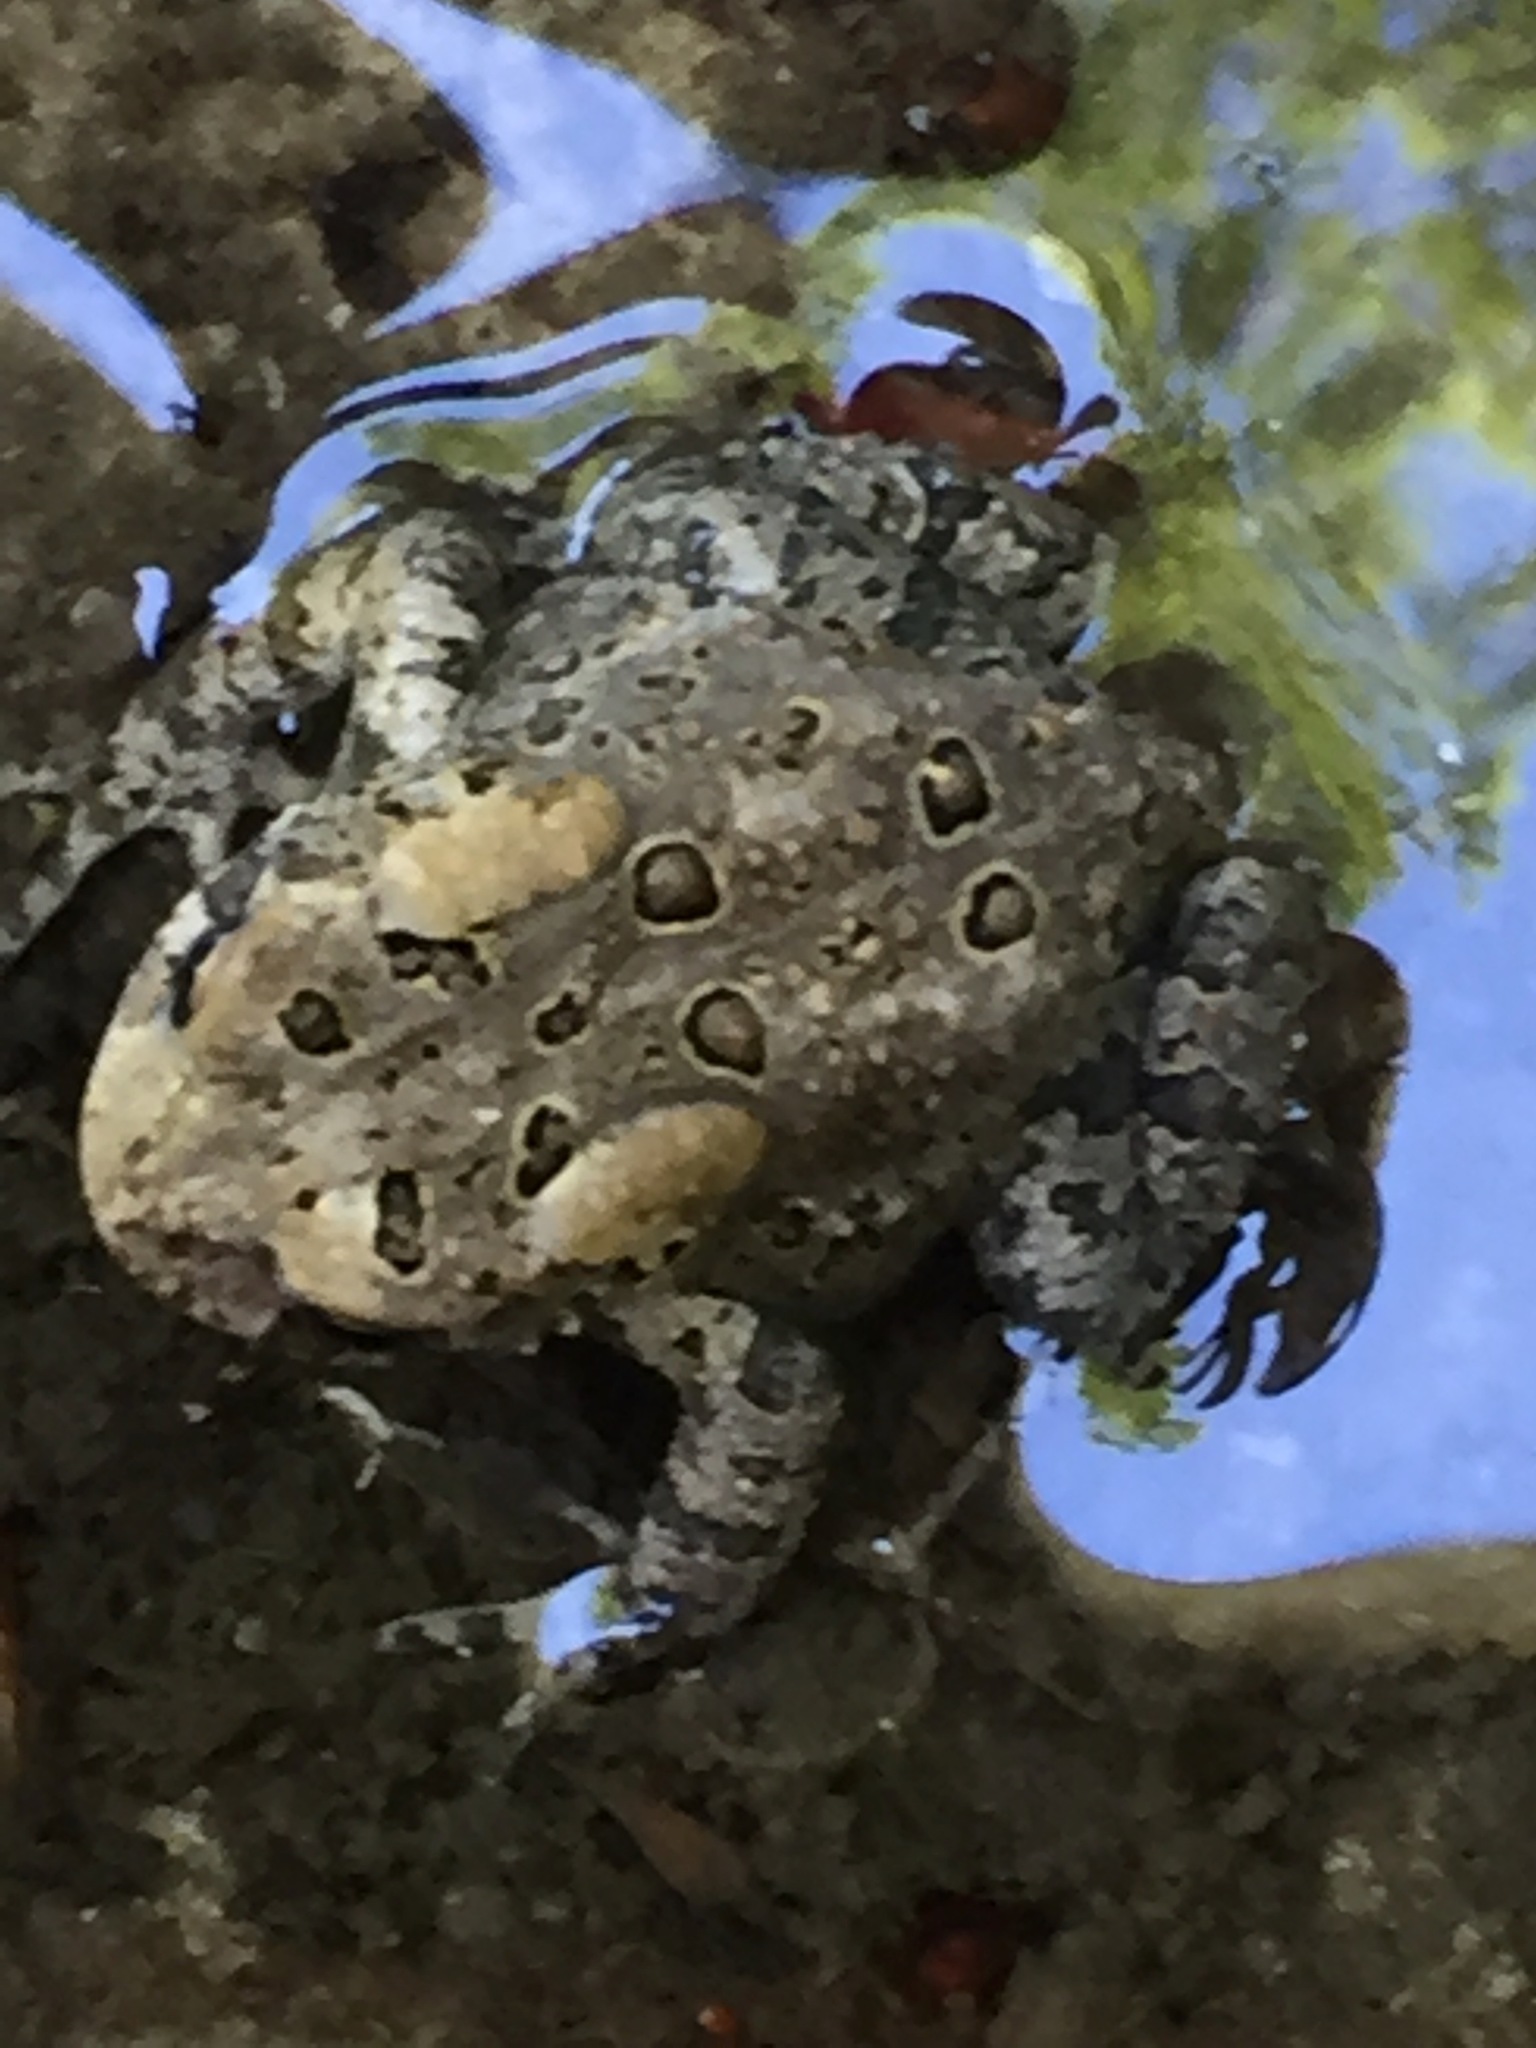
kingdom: Animalia
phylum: Chordata
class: Amphibia
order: Anura
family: Bufonidae
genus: Anaxyrus
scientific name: Anaxyrus americanus
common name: American toad
